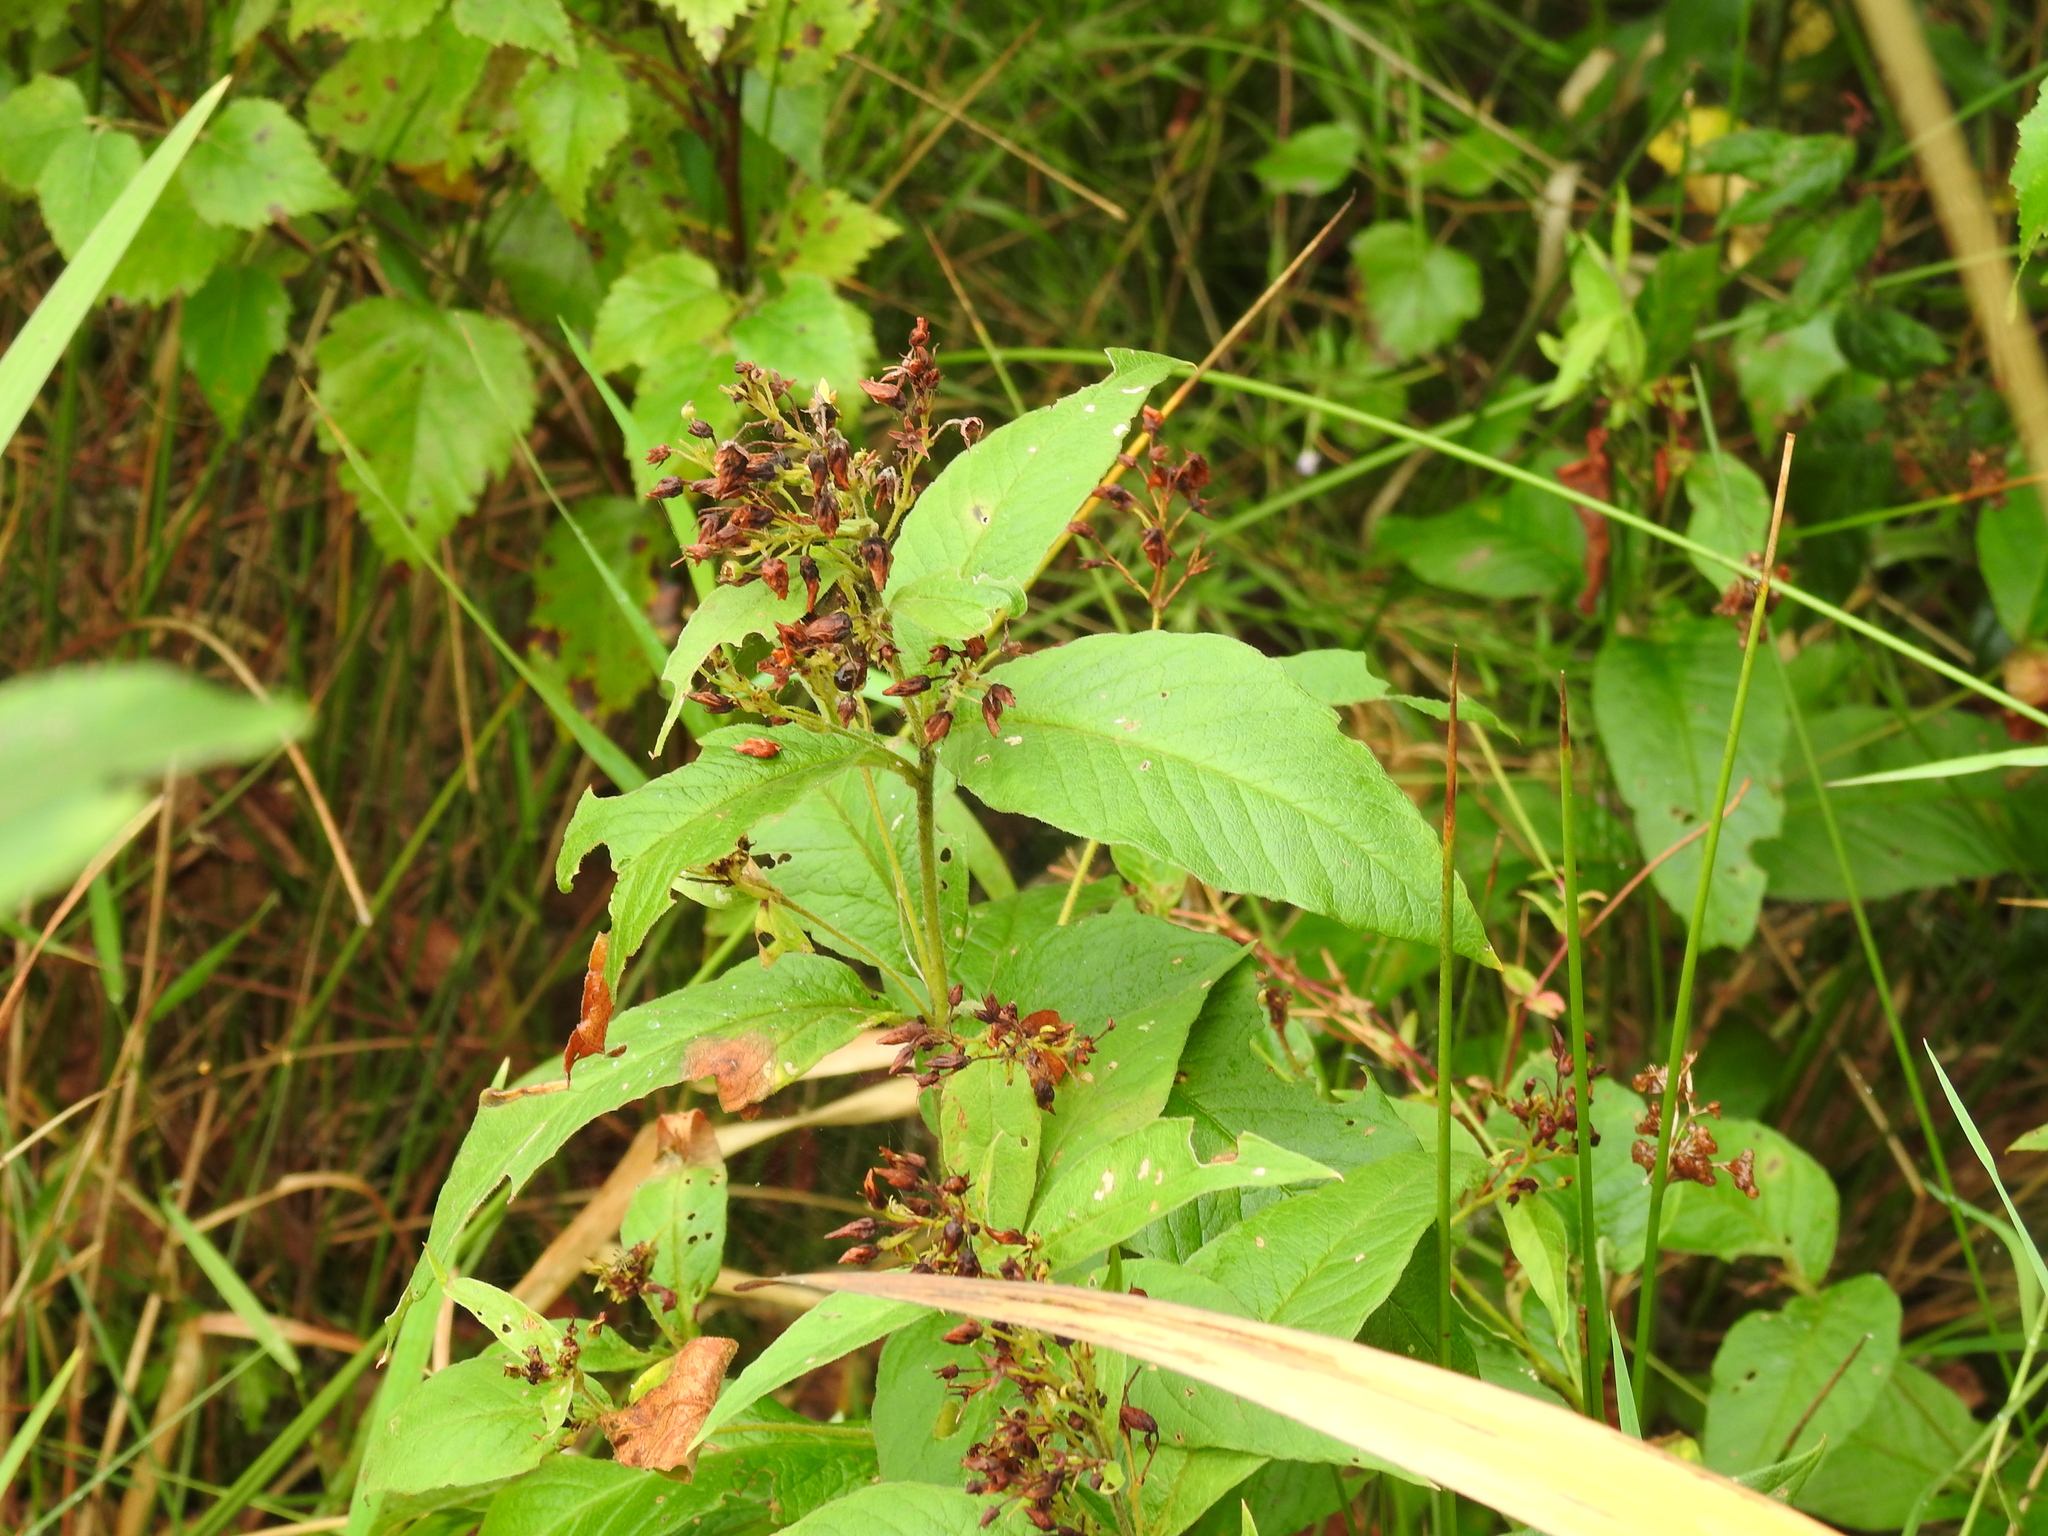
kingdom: Plantae
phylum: Tracheophyta
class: Magnoliopsida
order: Ericales
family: Primulaceae
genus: Lysimachia
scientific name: Lysimachia vulgaris
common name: Yellow loosestrife
